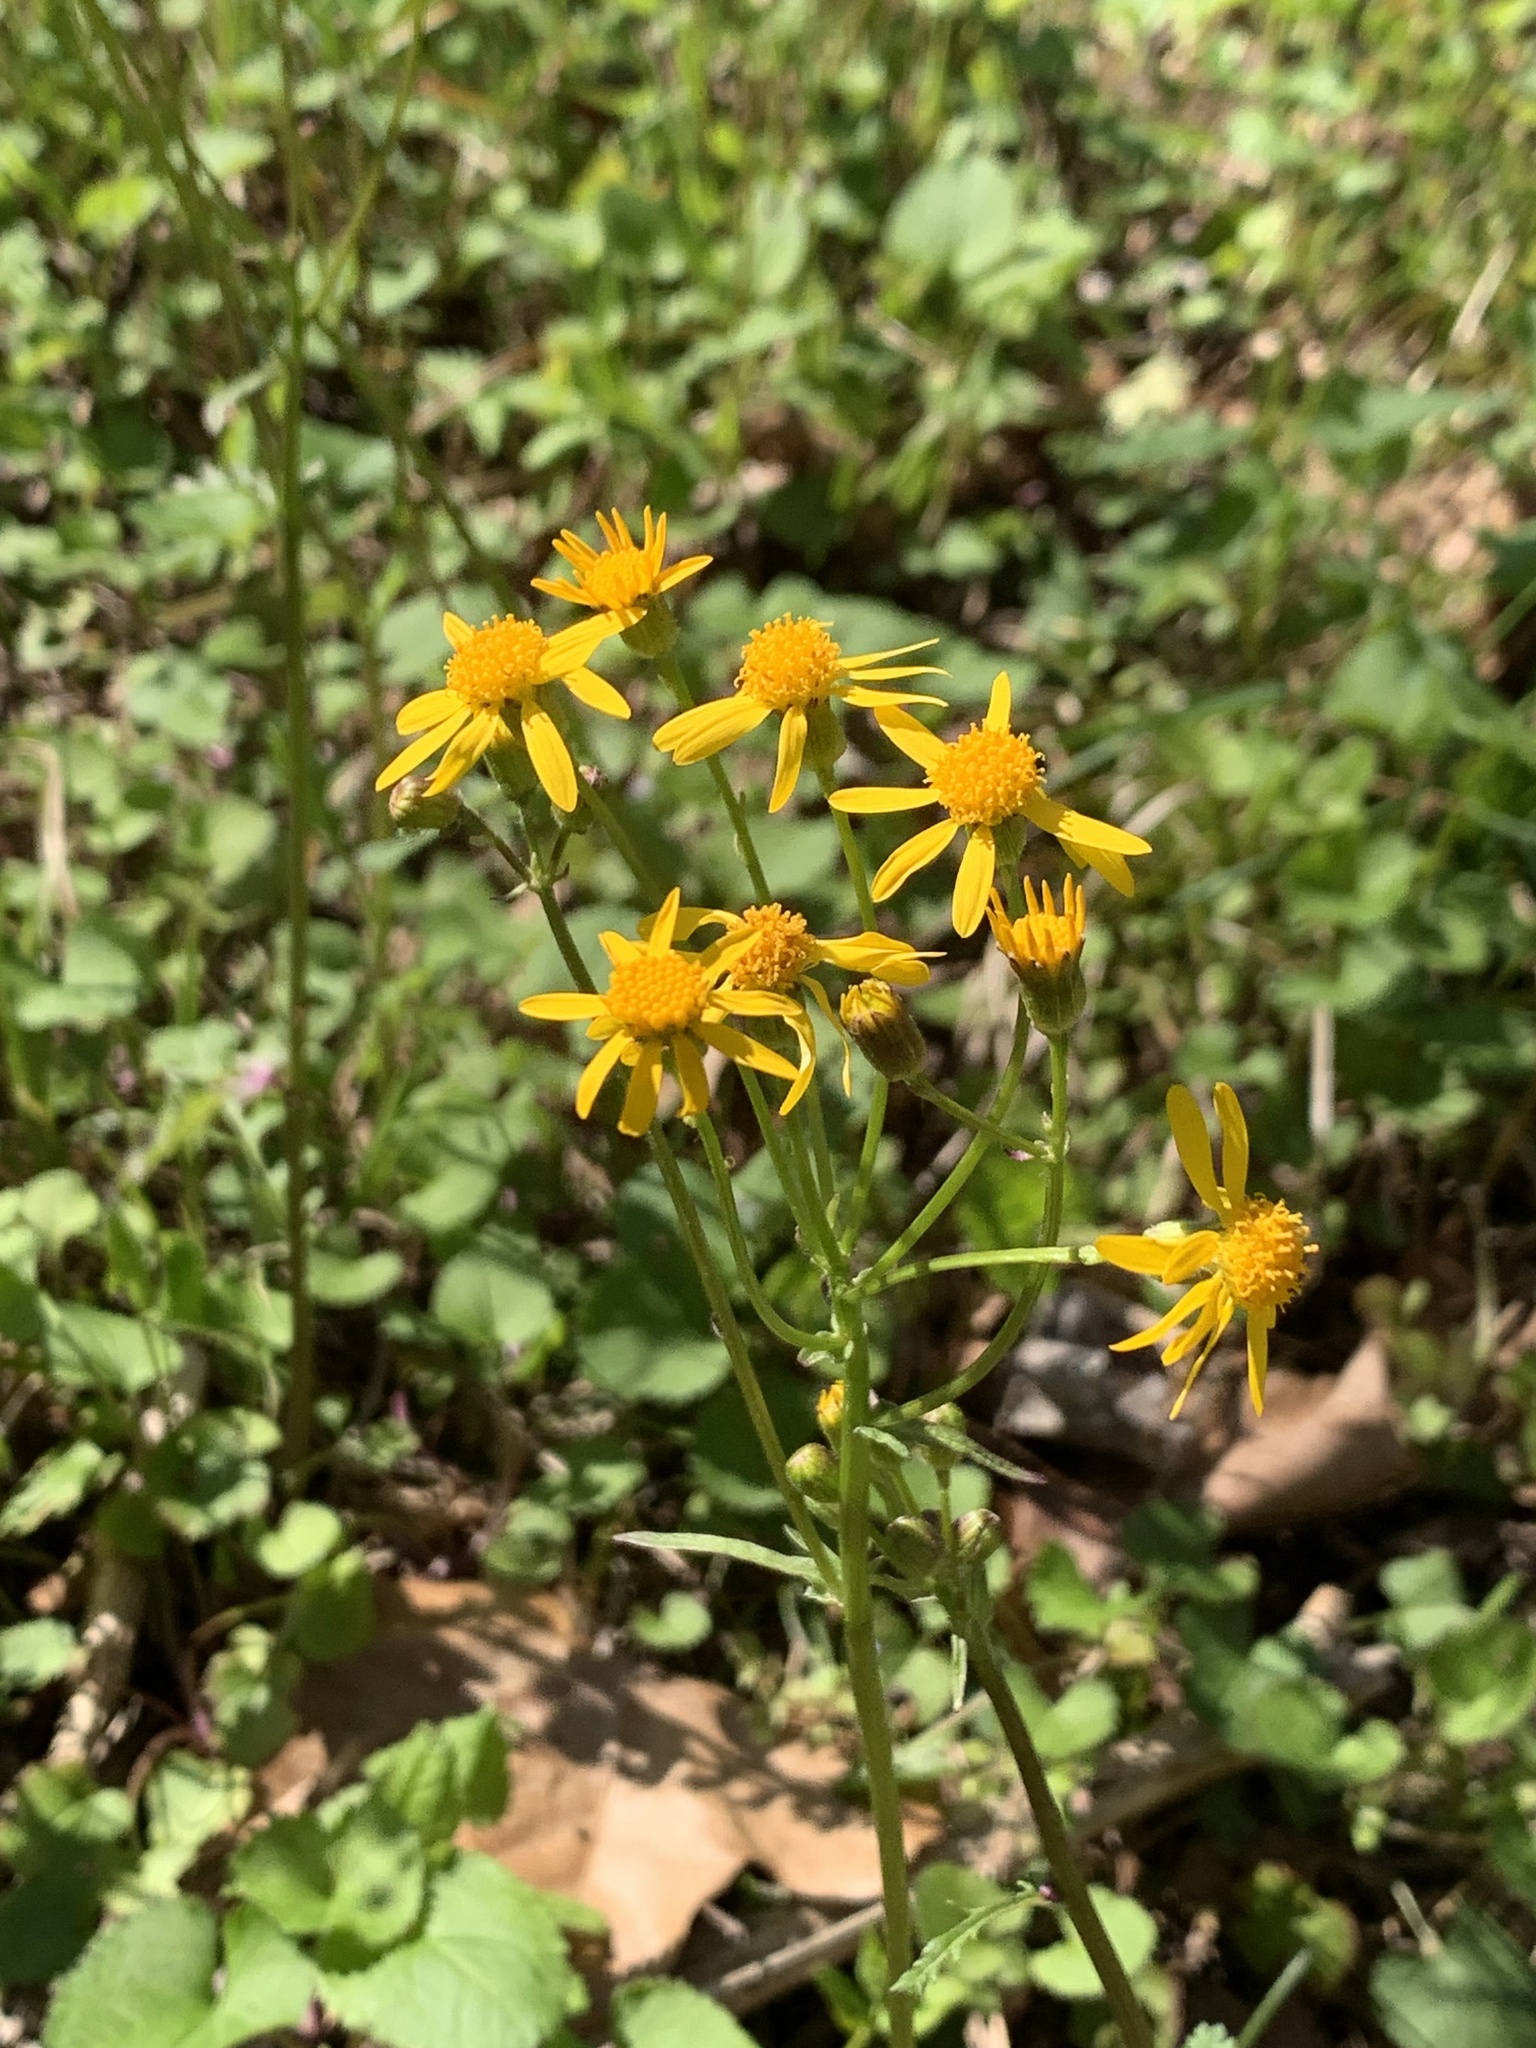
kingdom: Plantae
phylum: Tracheophyta
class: Magnoliopsida
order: Asterales
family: Asteraceae
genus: Packera
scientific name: Packera aurea
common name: Golden groundsel
